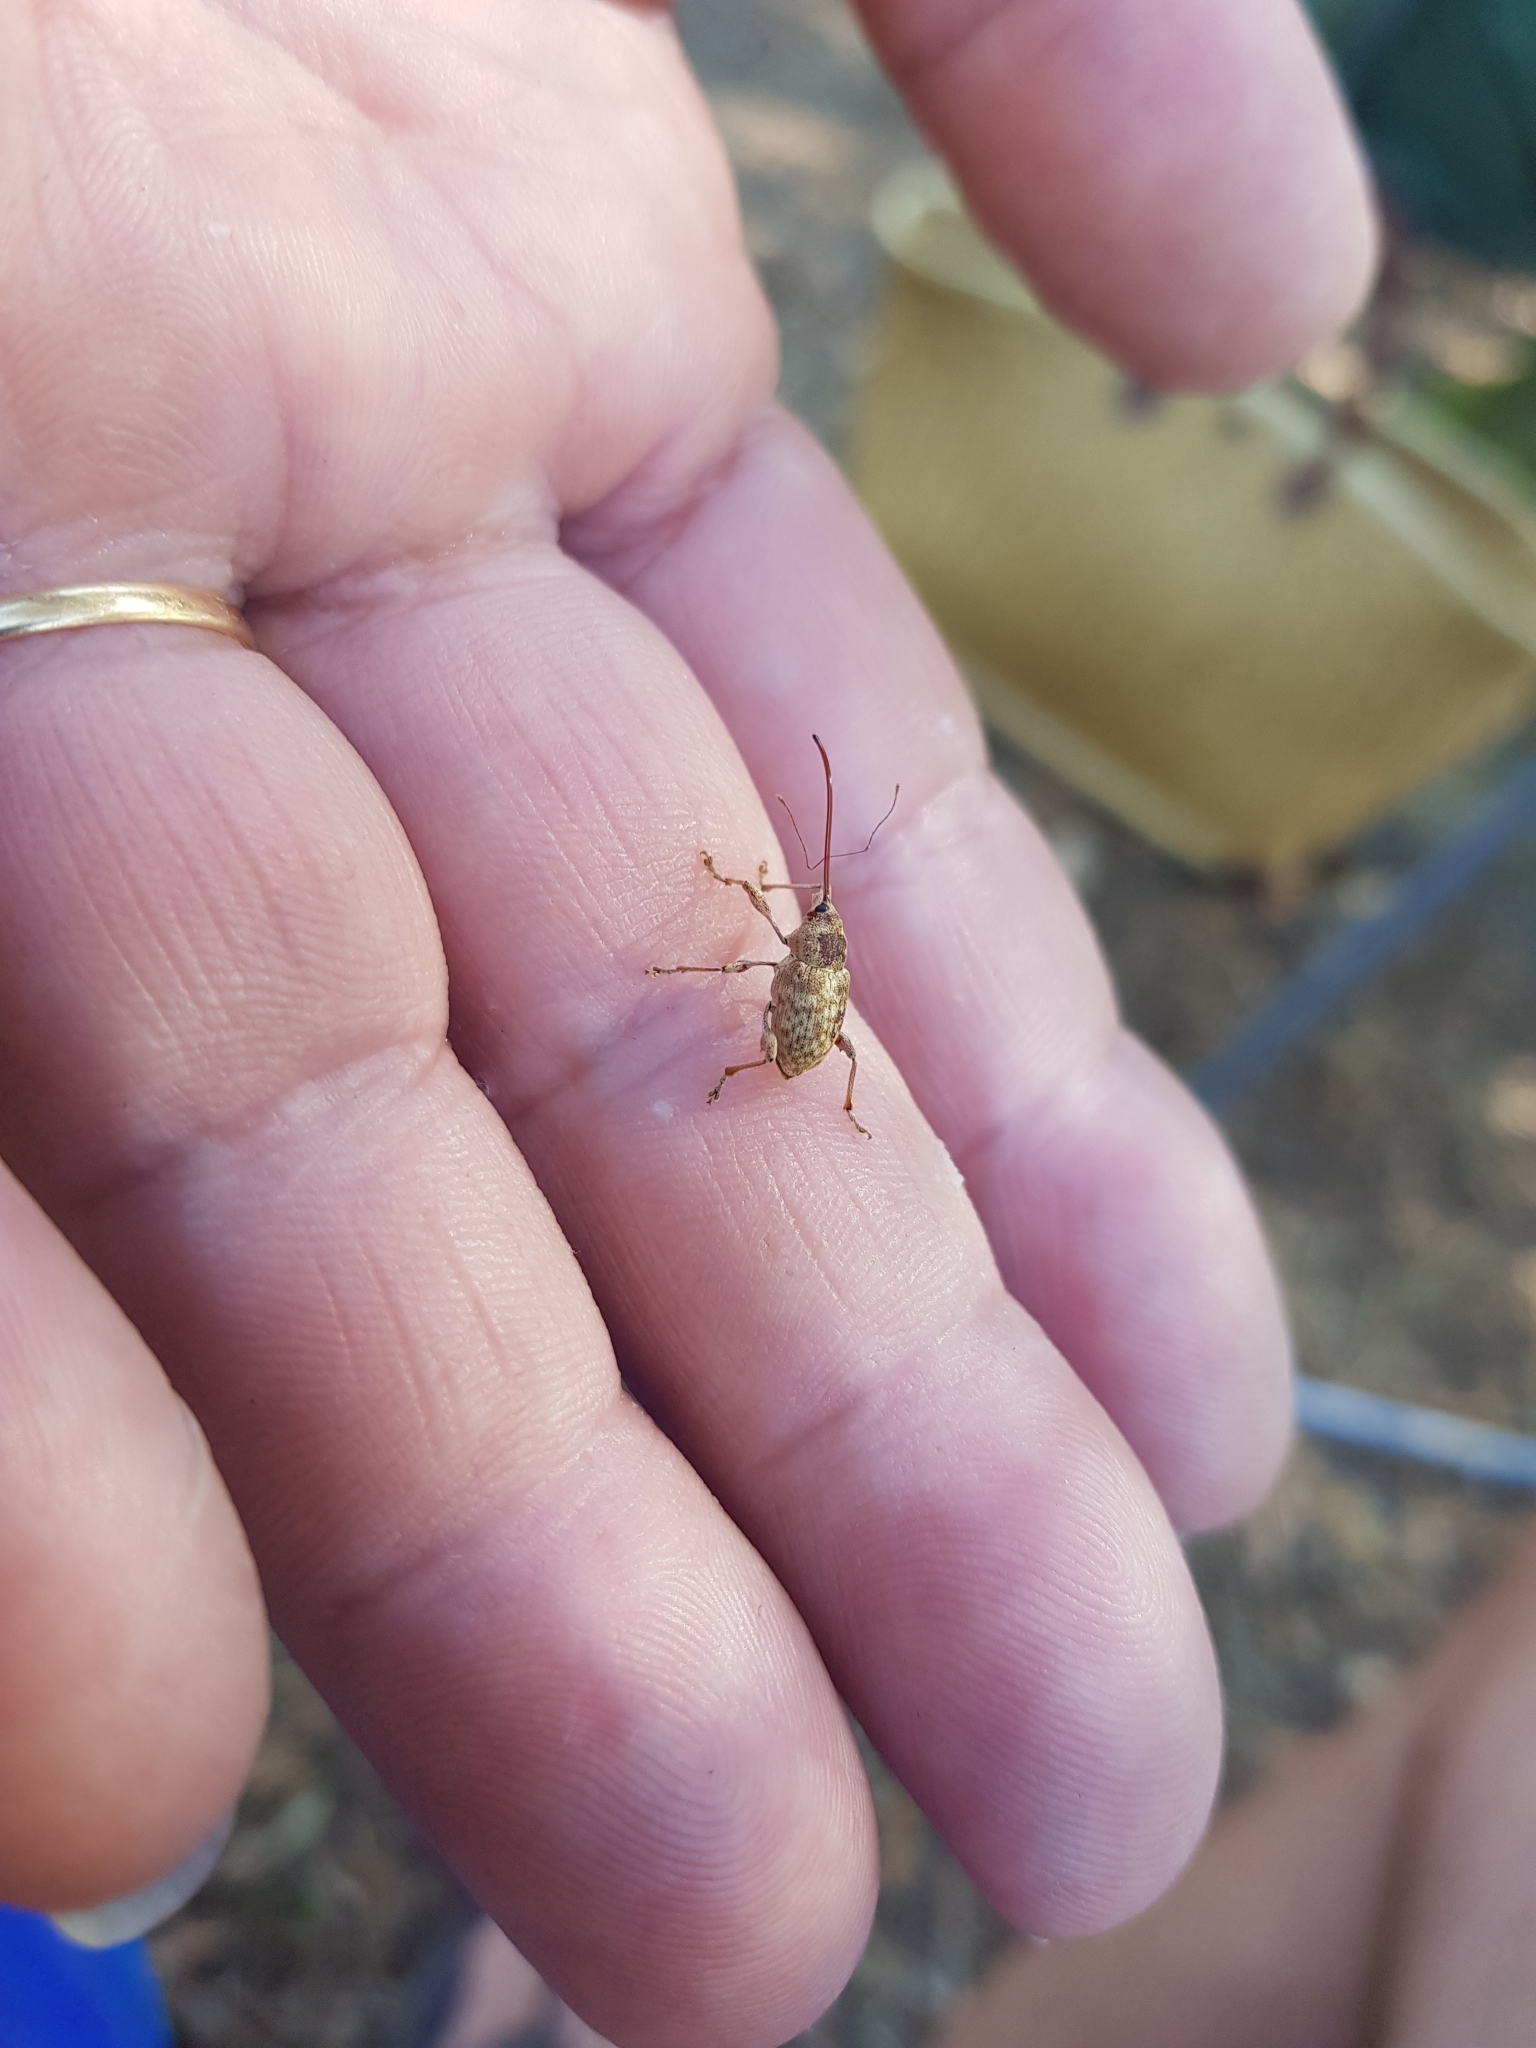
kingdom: Animalia
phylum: Arthropoda
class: Insecta
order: Coleoptera
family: Curculionidae
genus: Curculio
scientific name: Curculio elephas
